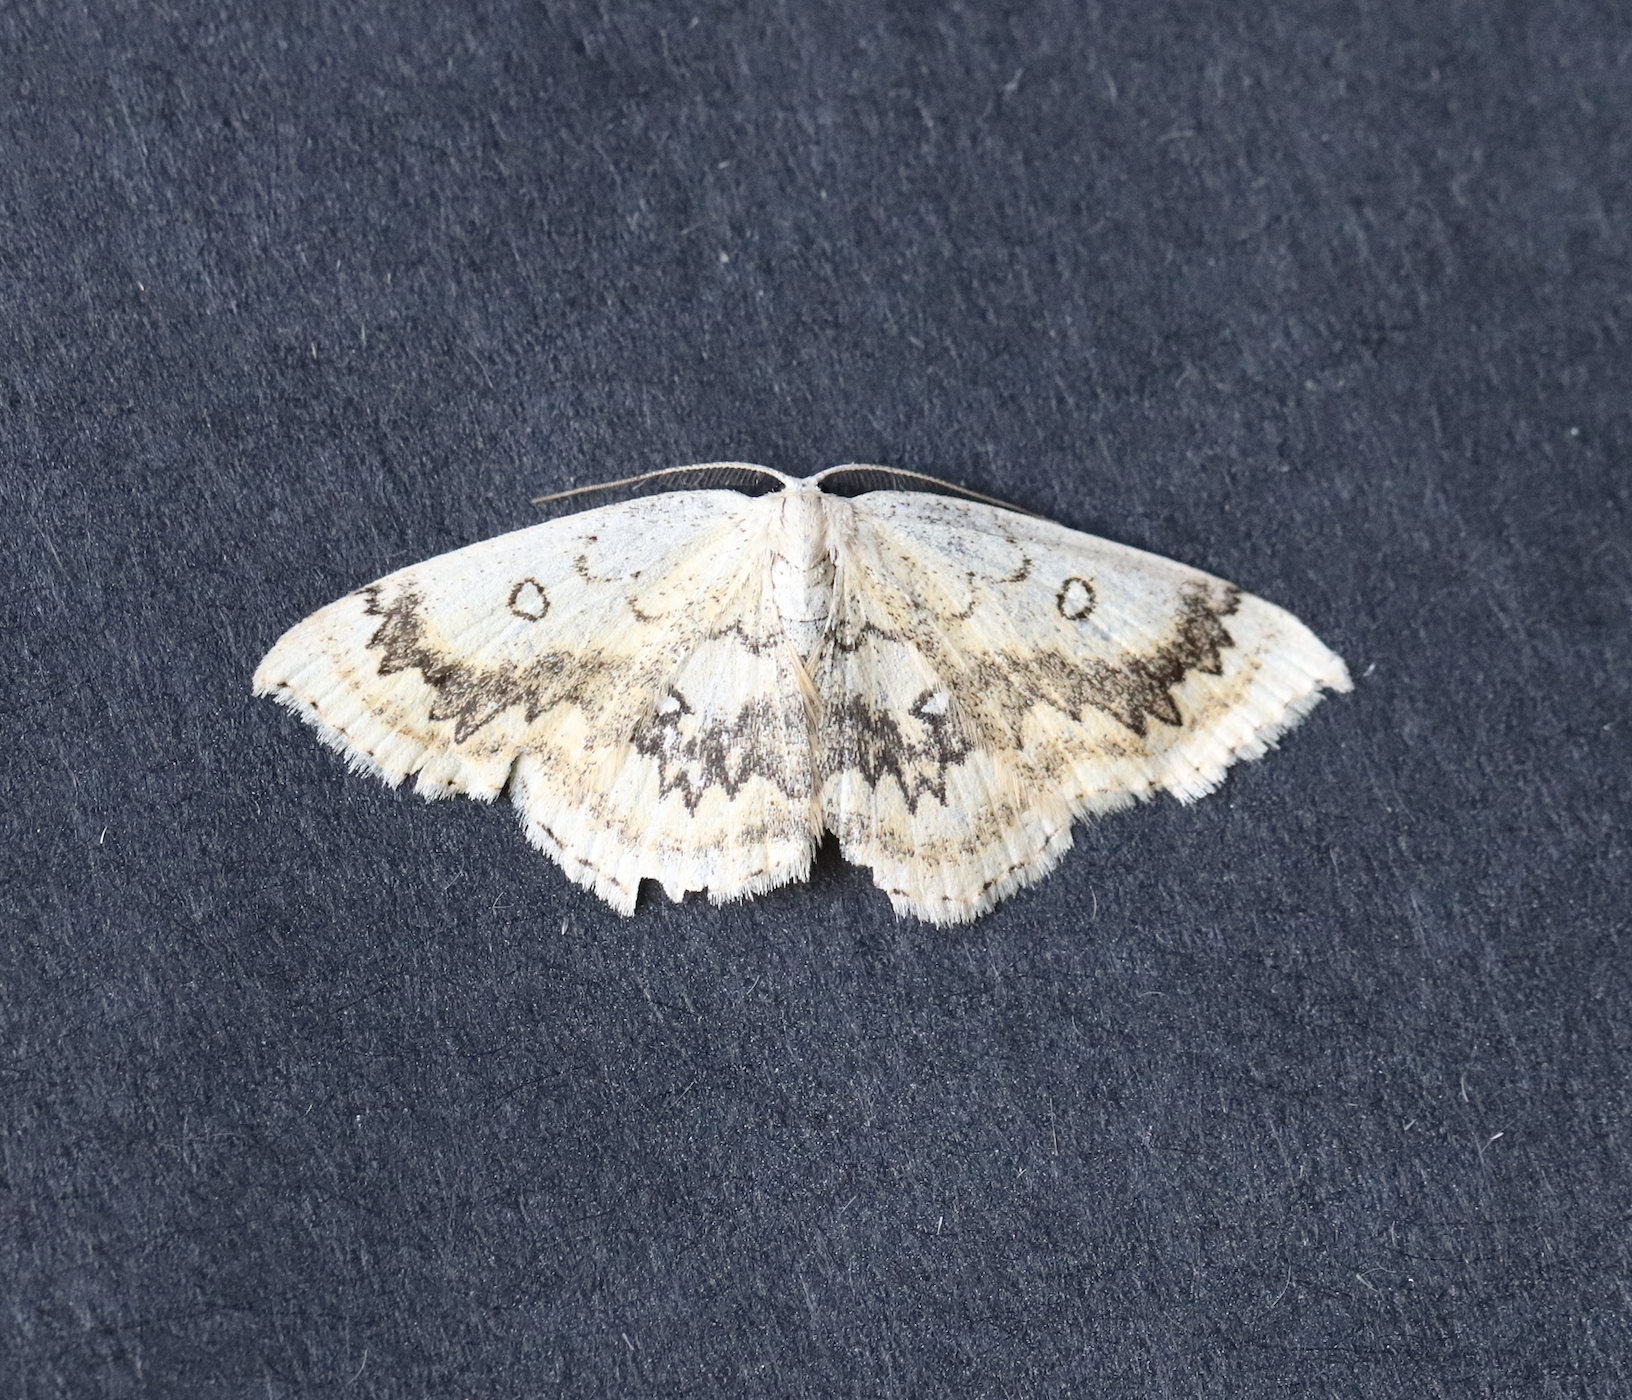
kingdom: Animalia
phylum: Arthropoda
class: Insecta
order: Lepidoptera
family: Geometridae
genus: Cyclophora
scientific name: Cyclophora annularia
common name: Mocha
